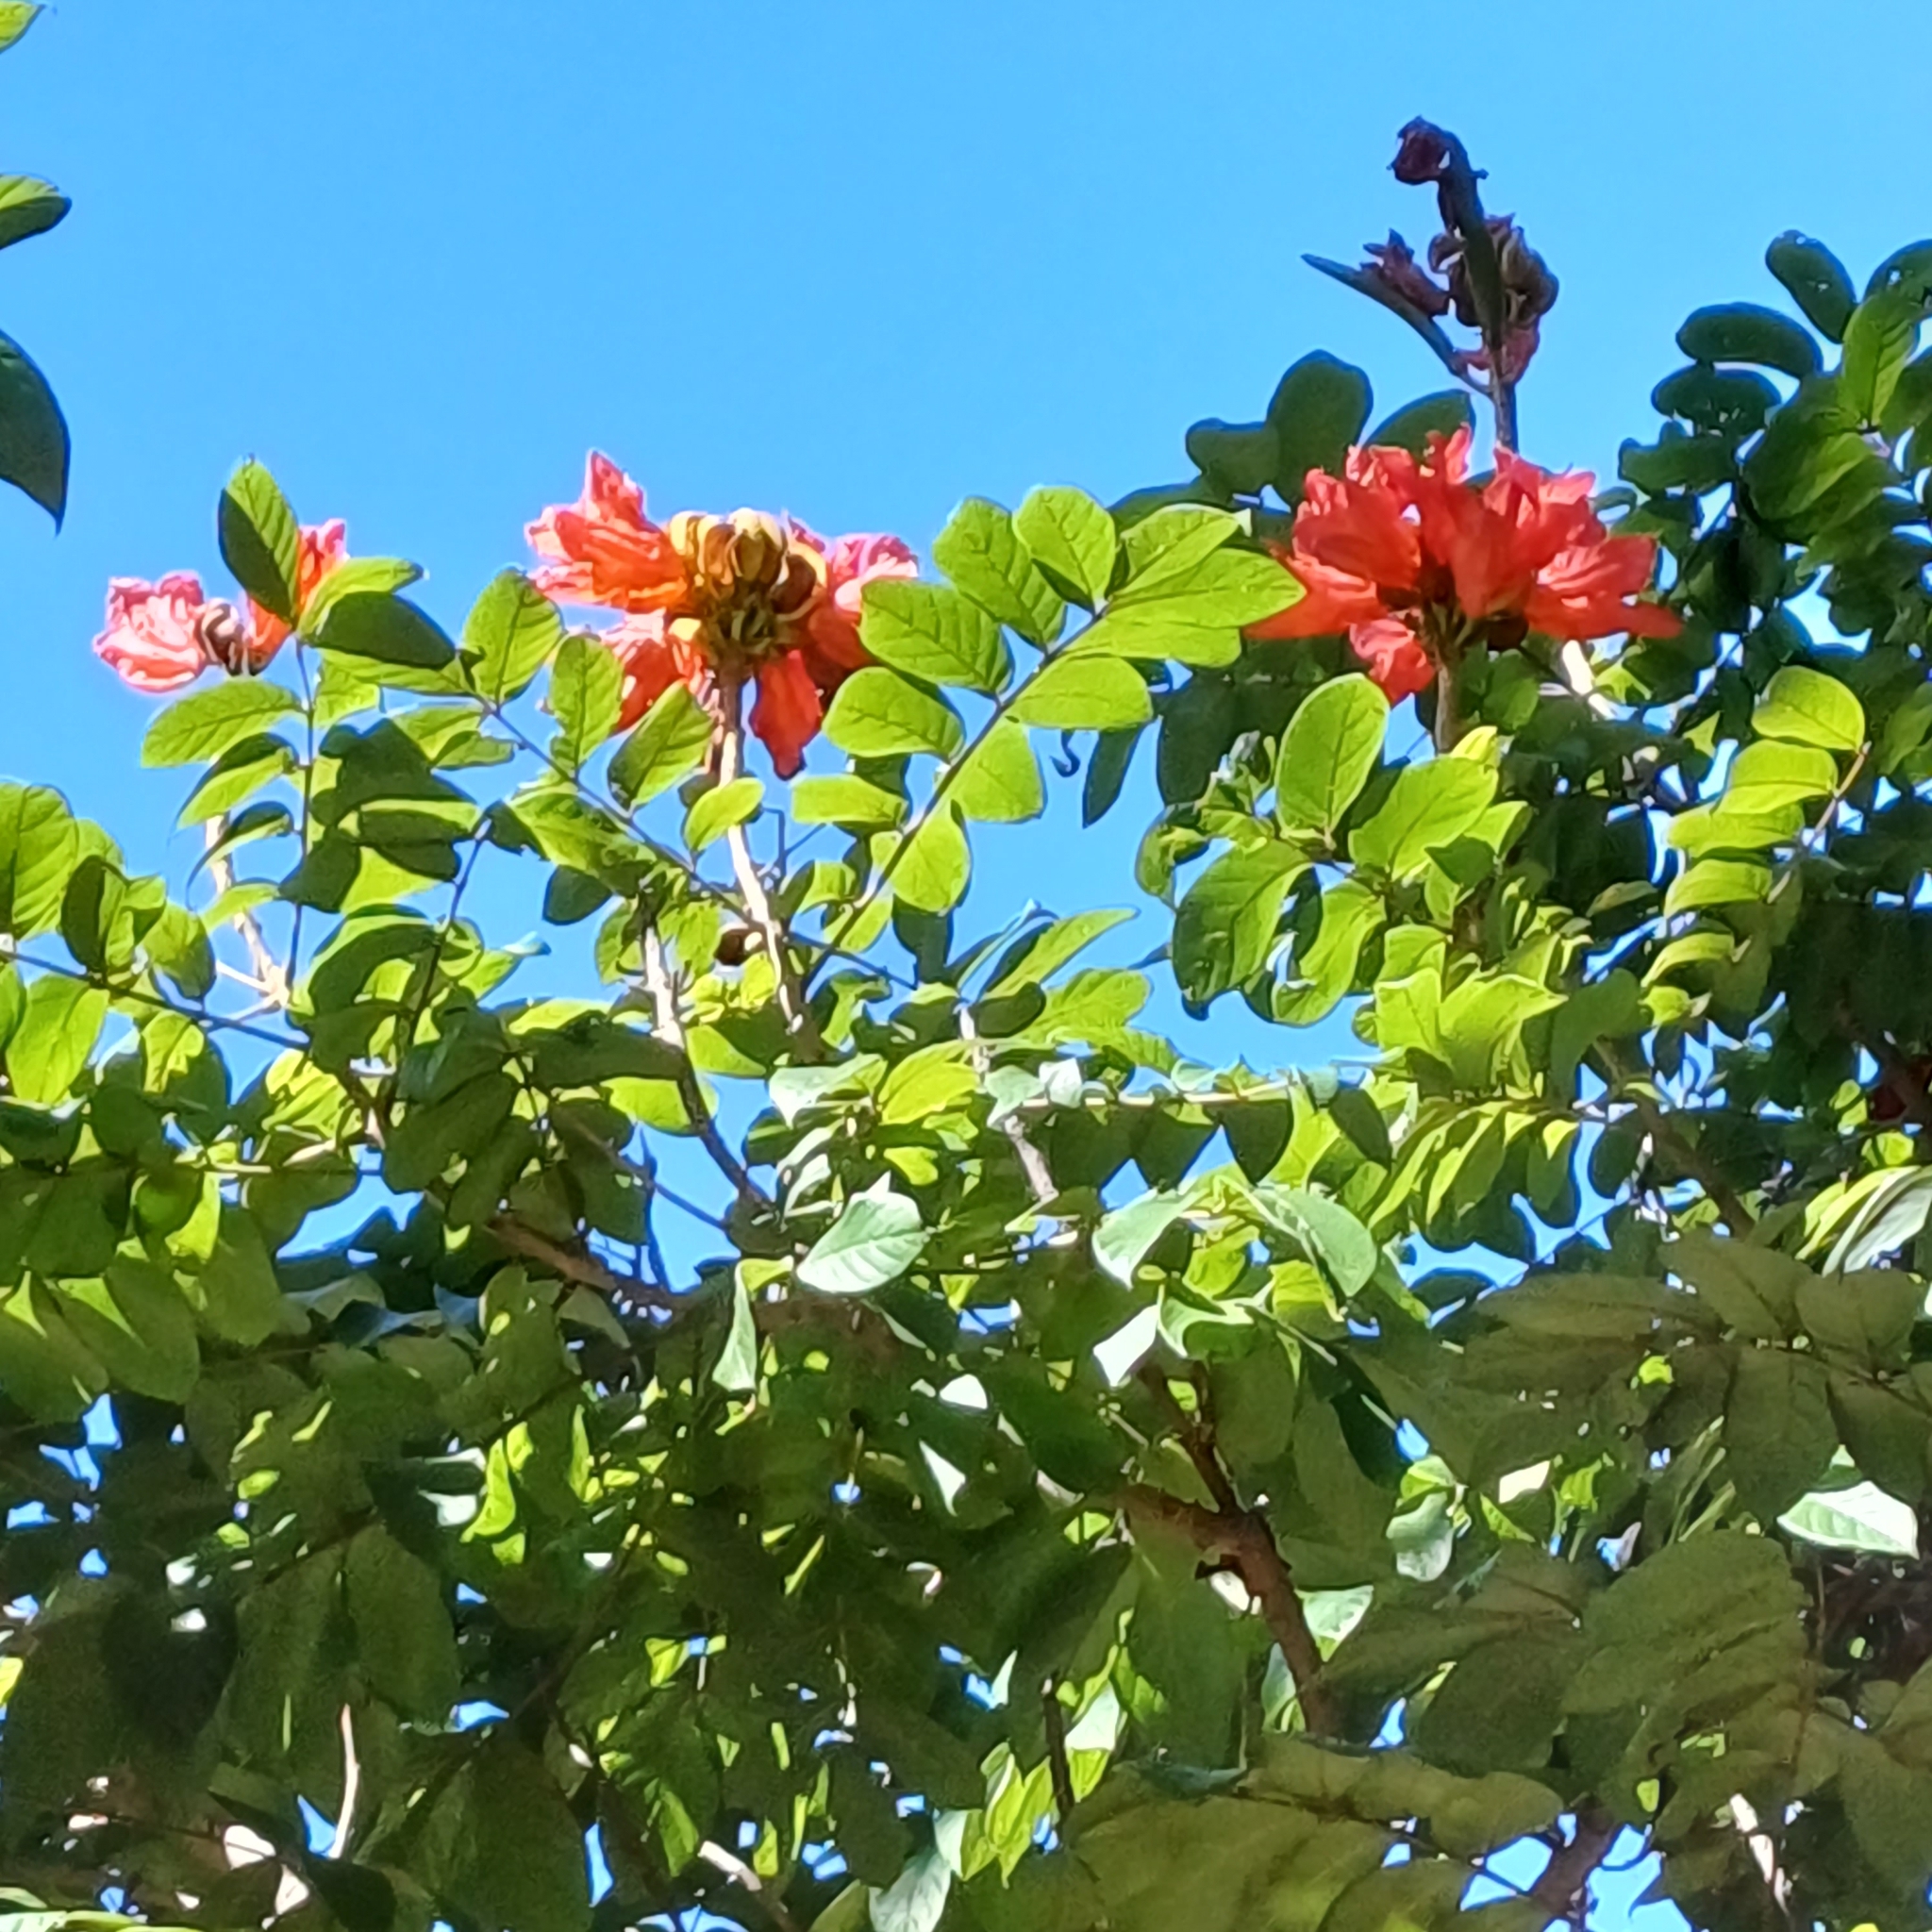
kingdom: Plantae
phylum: Tracheophyta
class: Magnoliopsida
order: Lamiales
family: Bignoniaceae
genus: Spathodea
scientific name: Spathodea campanulata
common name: African tuliptree
